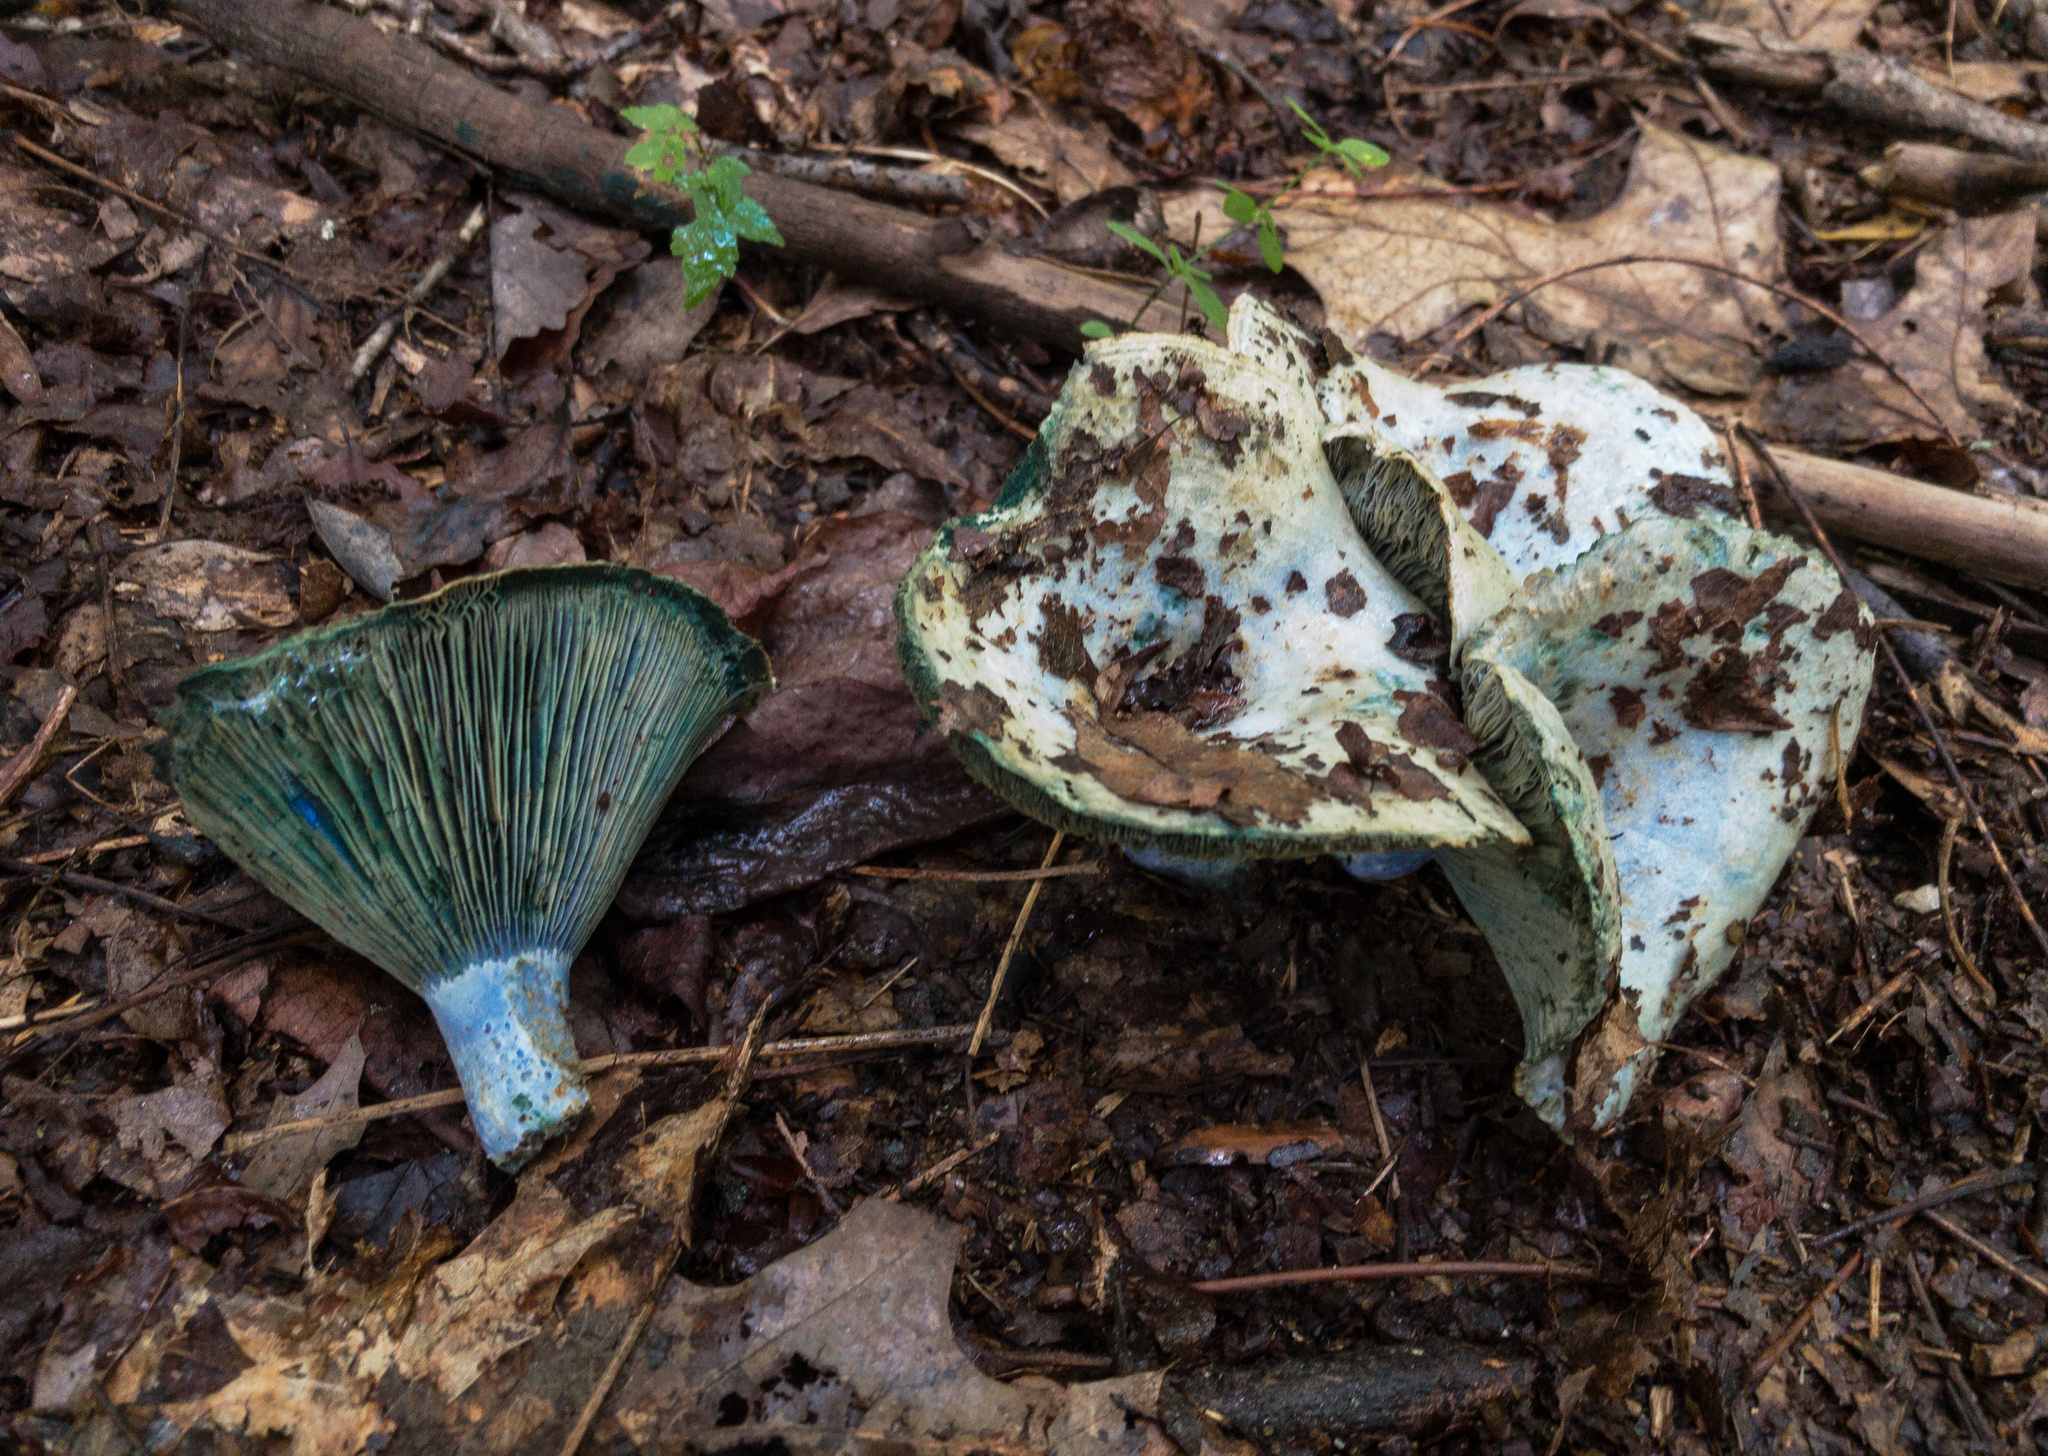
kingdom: Fungi
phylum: Basidiomycota
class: Agaricomycetes
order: Russulales
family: Russulaceae
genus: Lactarius
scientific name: Lactarius indigo
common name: Indigo milk cap
